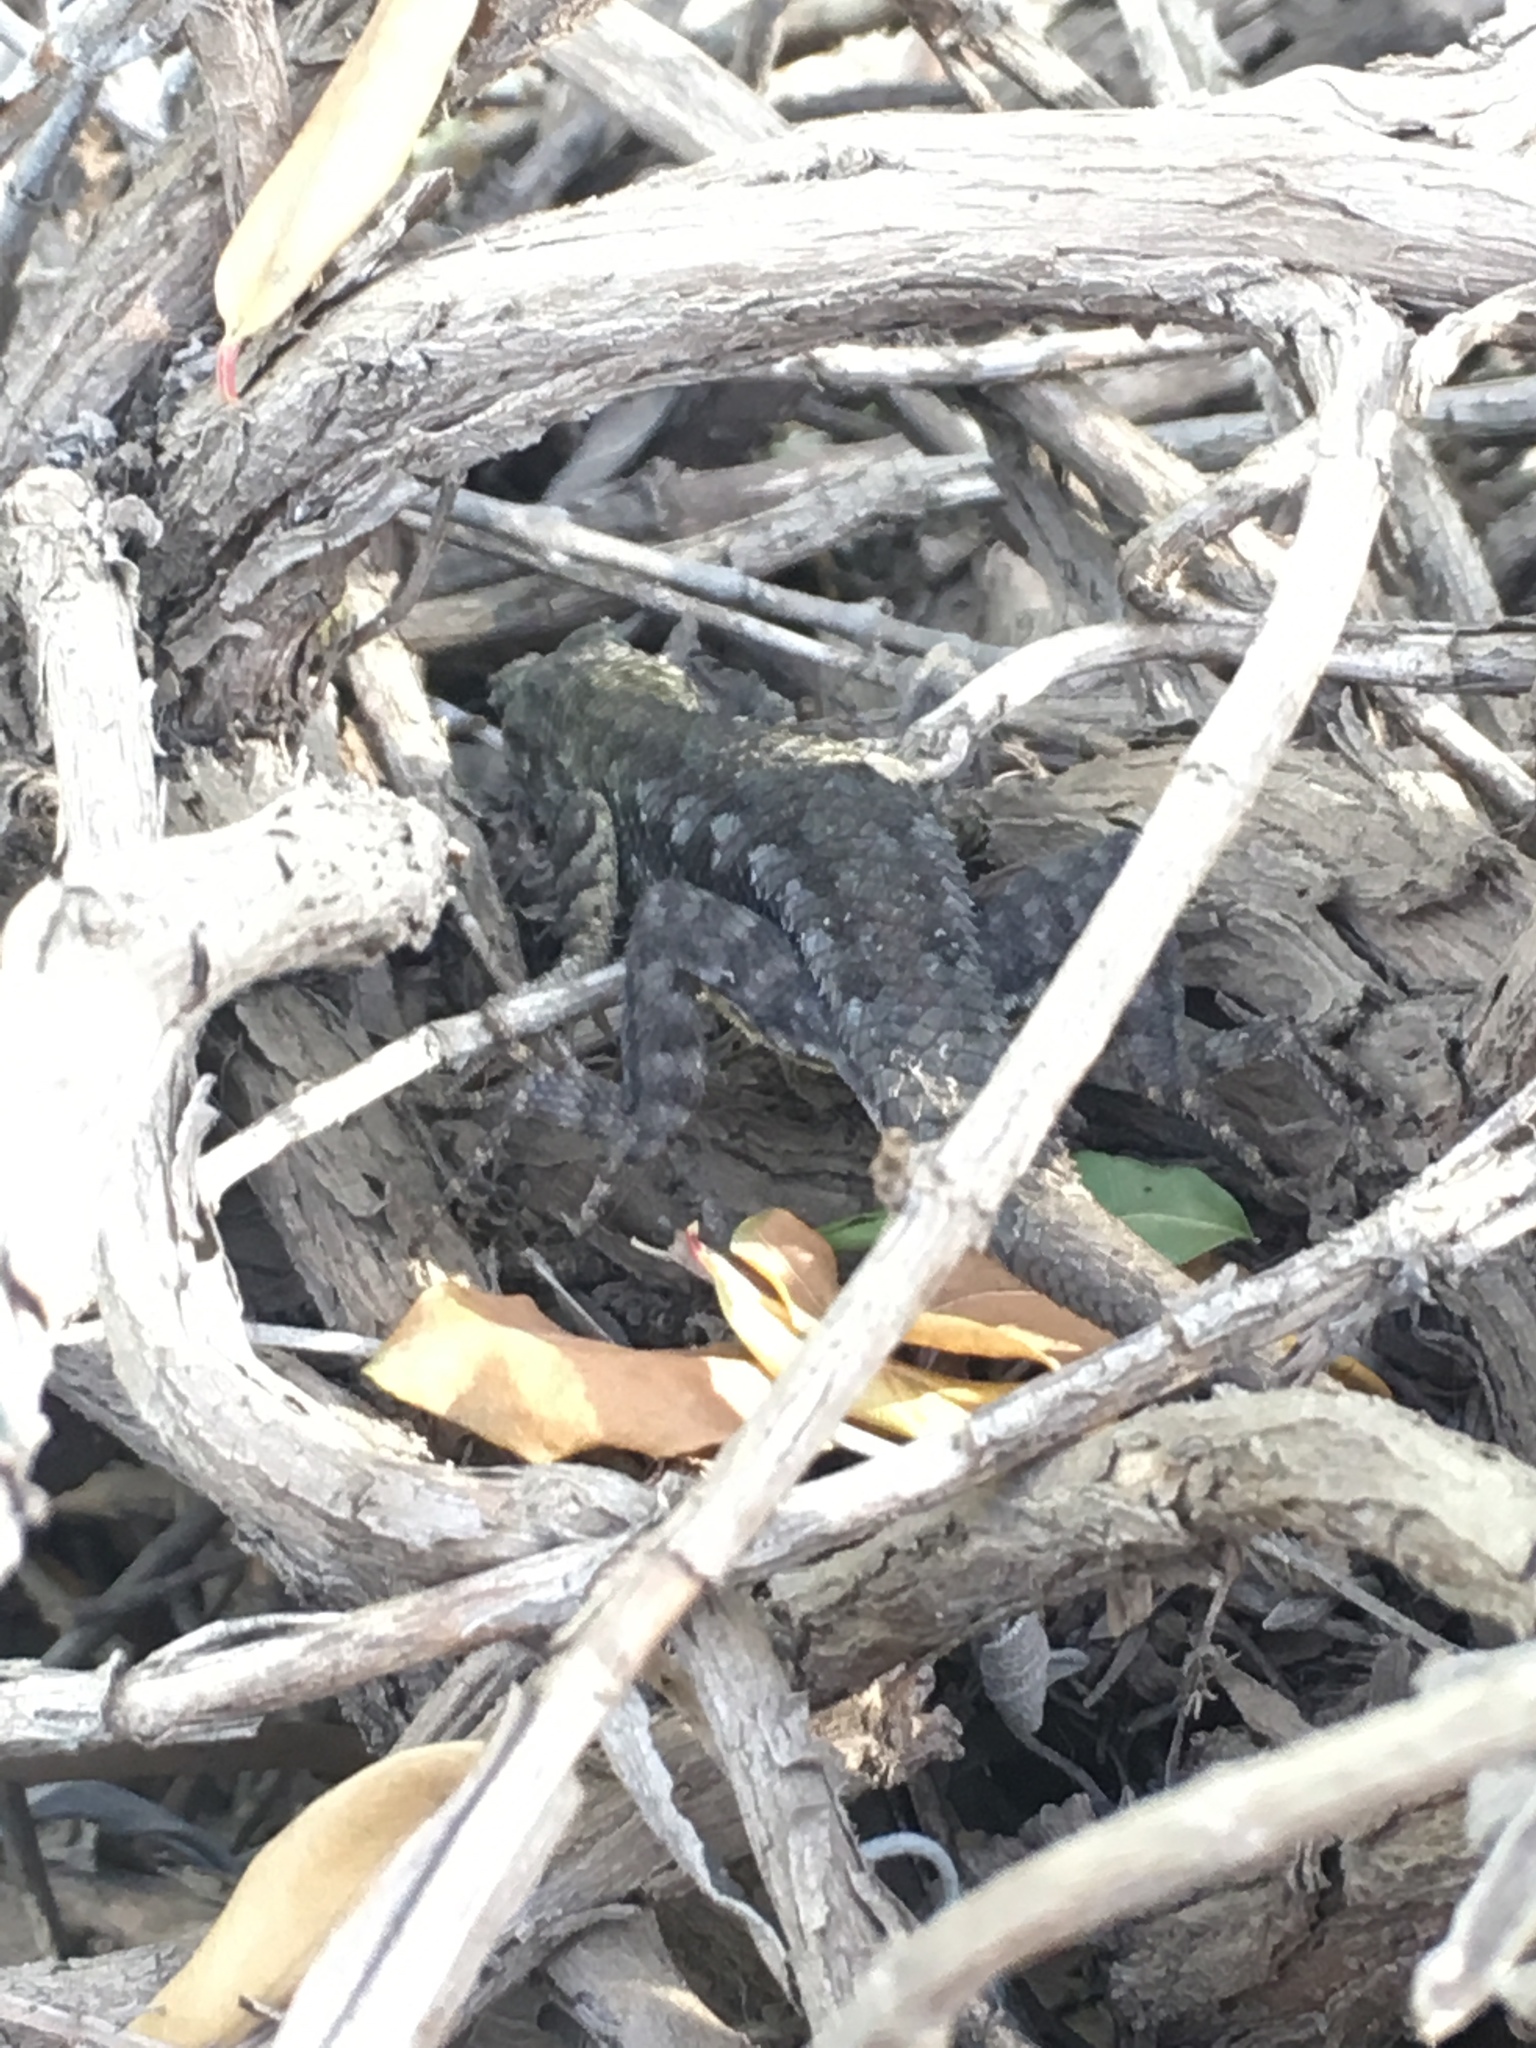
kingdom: Animalia
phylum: Chordata
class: Squamata
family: Phrynosomatidae
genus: Sceloporus
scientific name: Sceloporus occidentalis
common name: Western fence lizard
